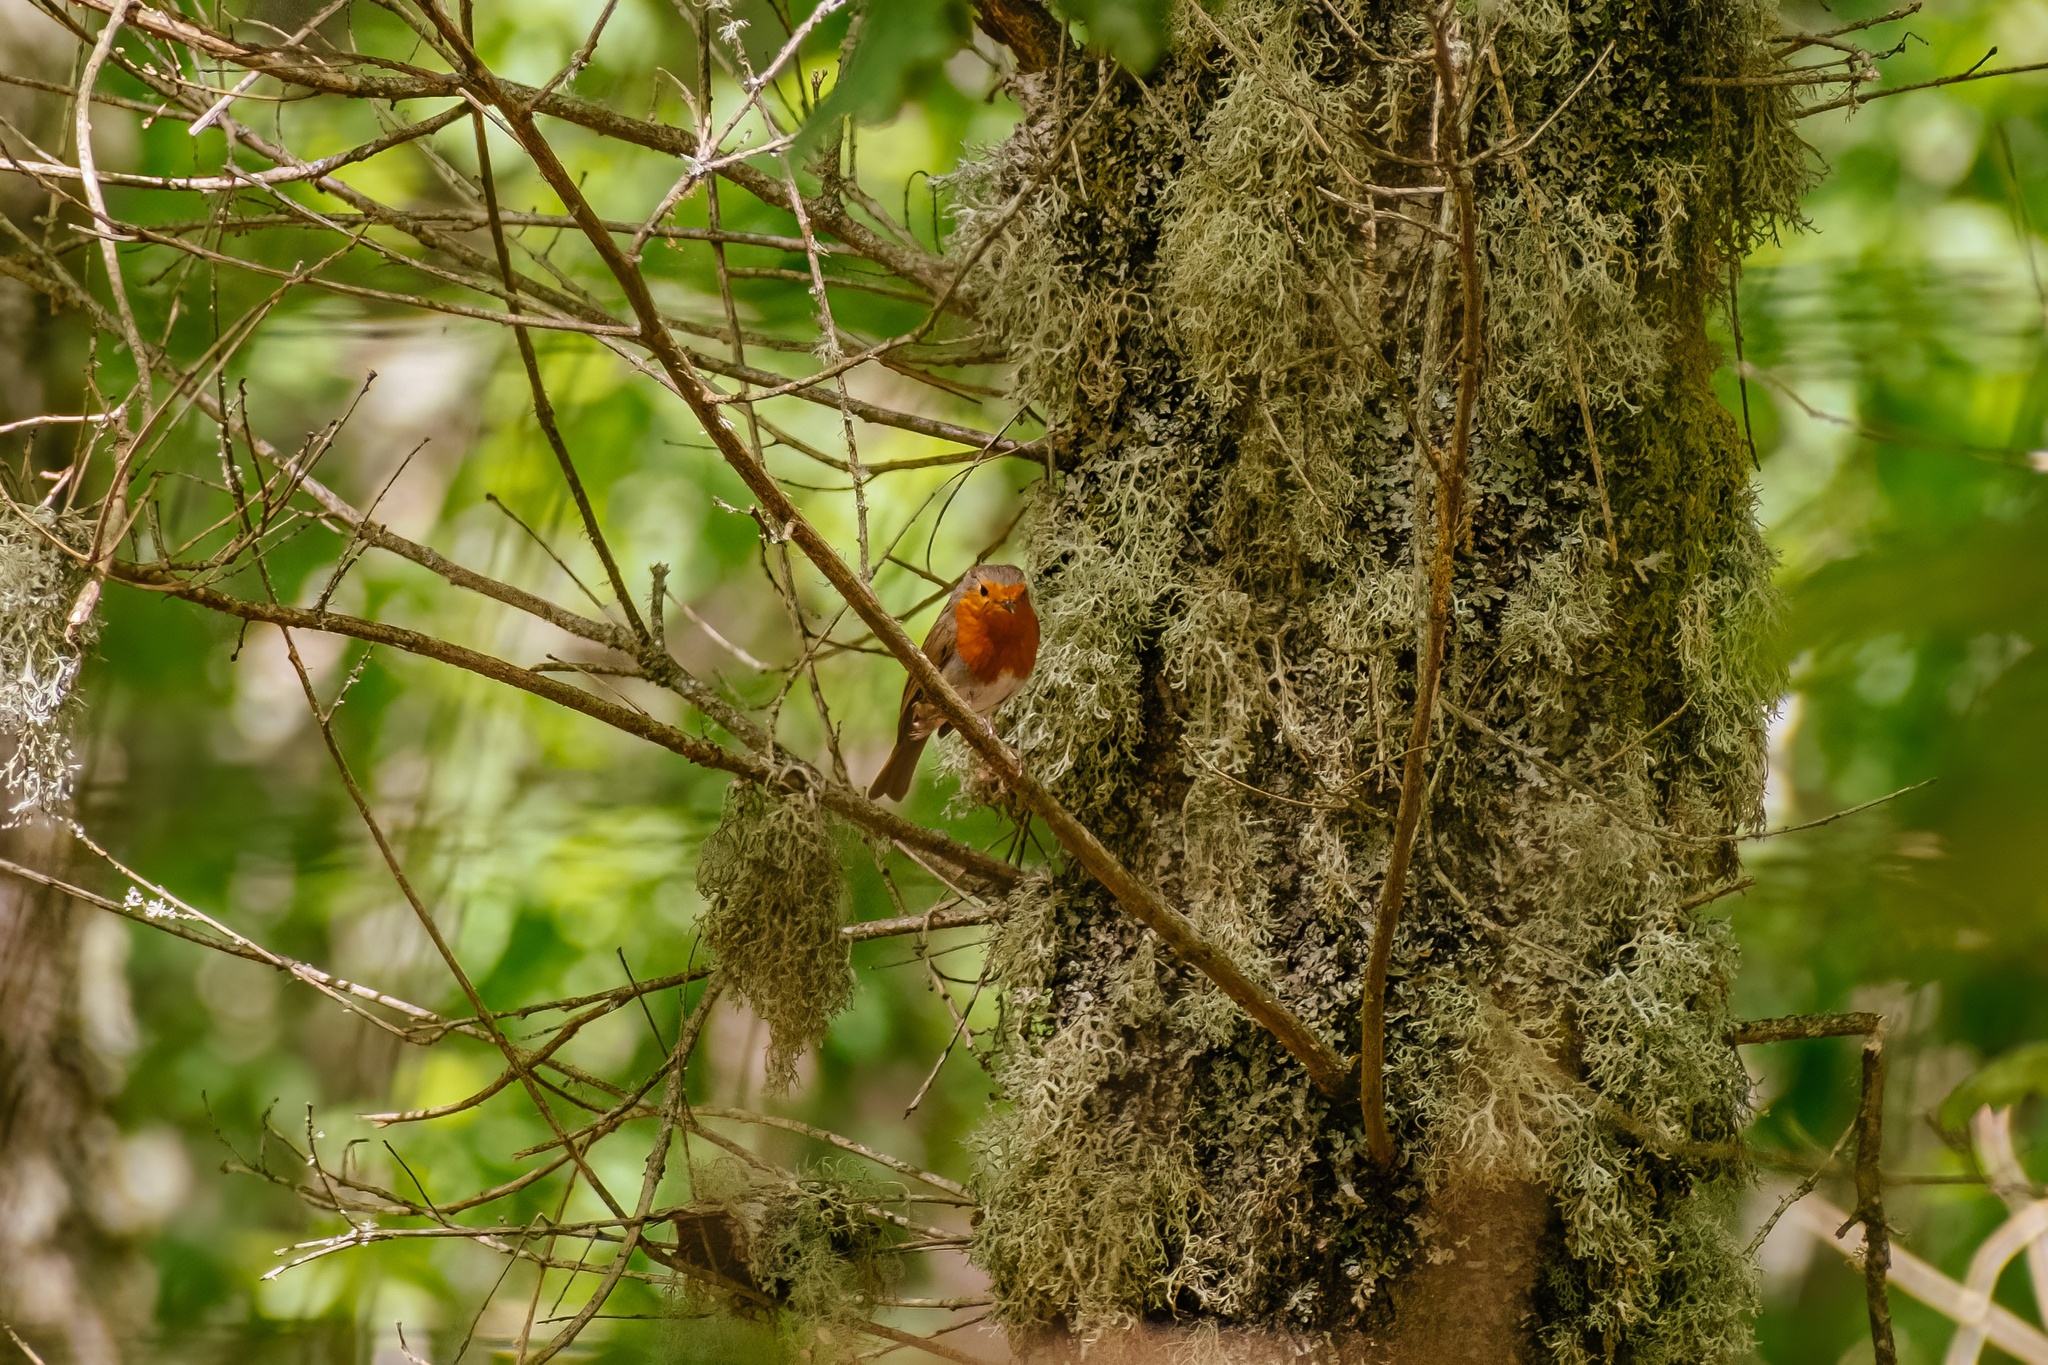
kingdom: Animalia
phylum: Chordata
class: Aves
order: Passeriformes
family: Muscicapidae
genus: Erithacus
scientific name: Erithacus rubecula
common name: European robin
